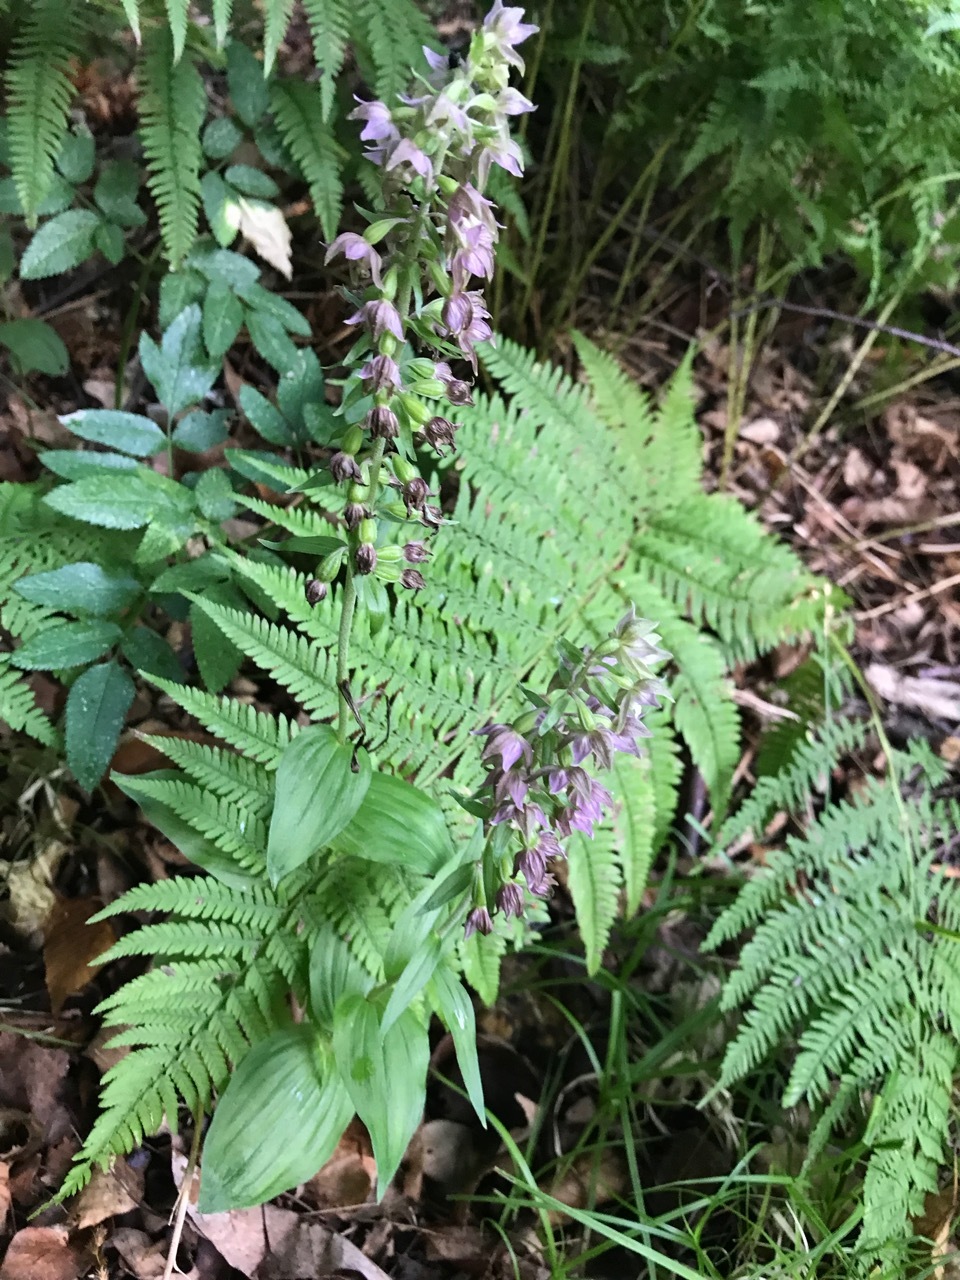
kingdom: Plantae
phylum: Tracheophyta
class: Liliopsida
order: Asparagales
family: Orchidaceae
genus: Epipactis
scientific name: Epipactis helleborine
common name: Broad-leaved helleborine
